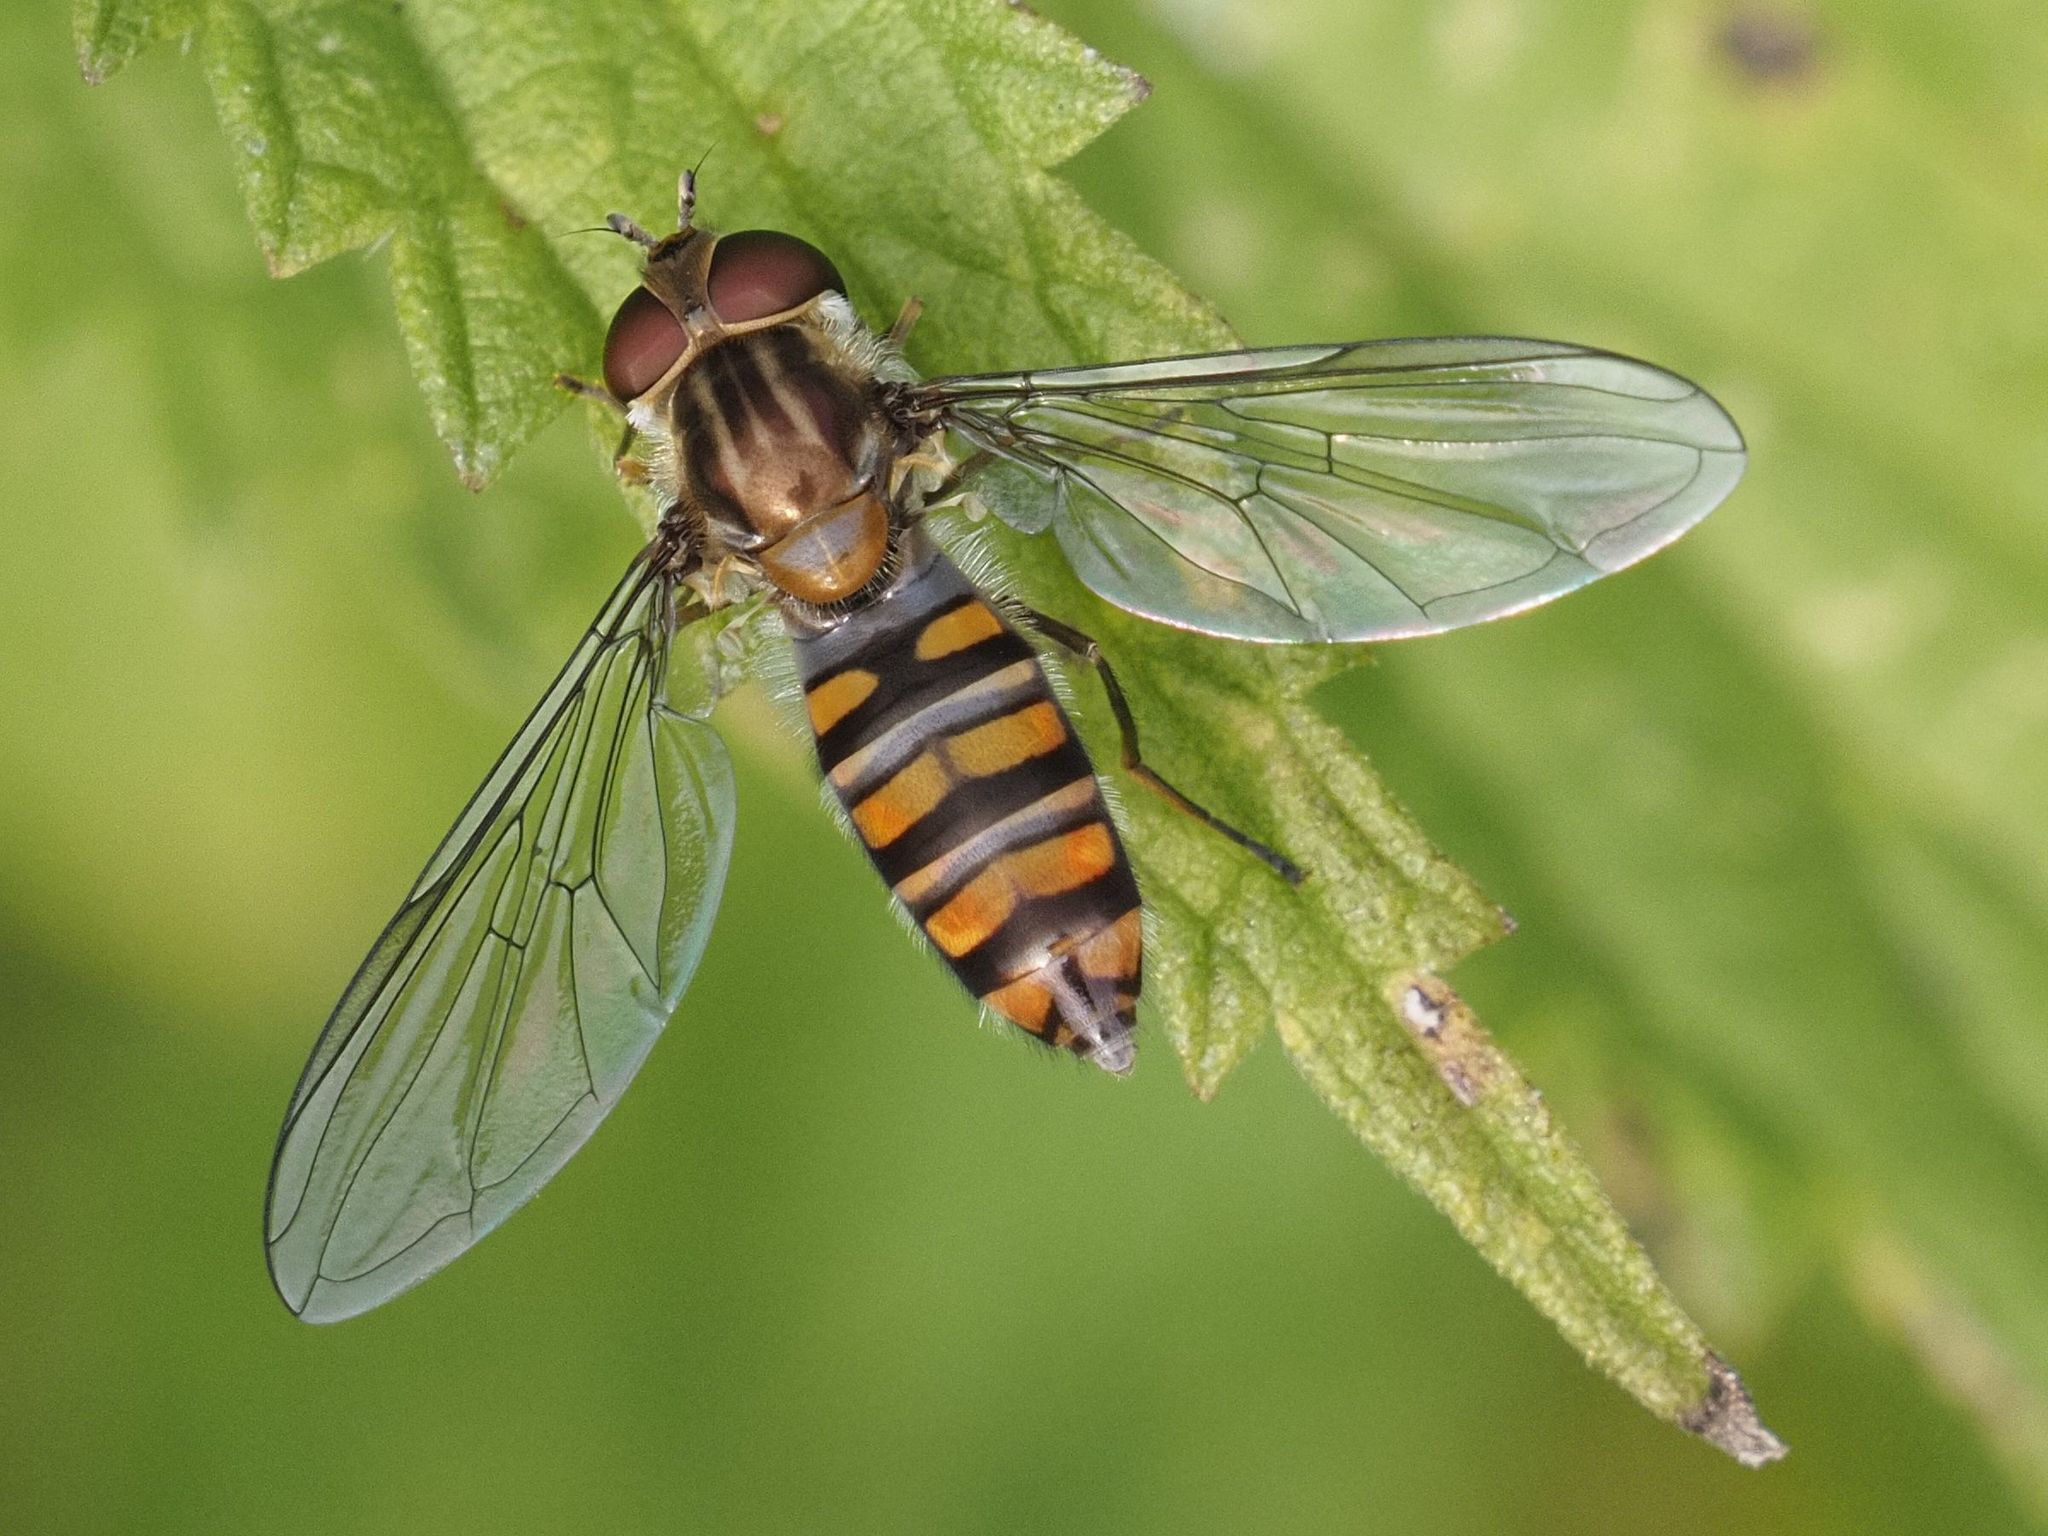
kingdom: Animalia
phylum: Arthropoda
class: Insecta
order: Diptera
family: Syrphidae
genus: Episyrphus
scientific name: Episyrphus balteatus
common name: Marmalade hoverfly
